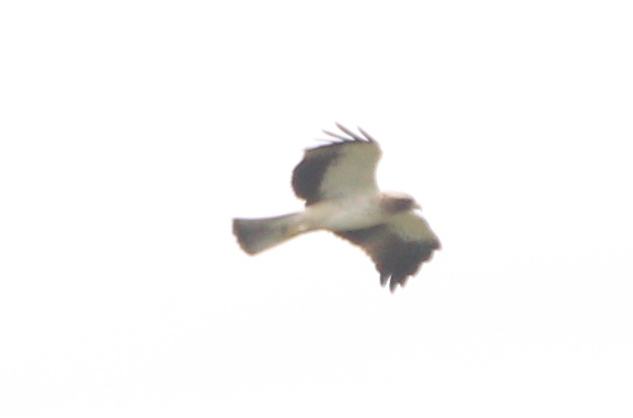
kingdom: Animalia
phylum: Chordata
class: Aves
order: Accipitriformes
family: Accipitridae
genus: Hieraaetus
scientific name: Hieraaetus pennatus
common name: Booted eagle
